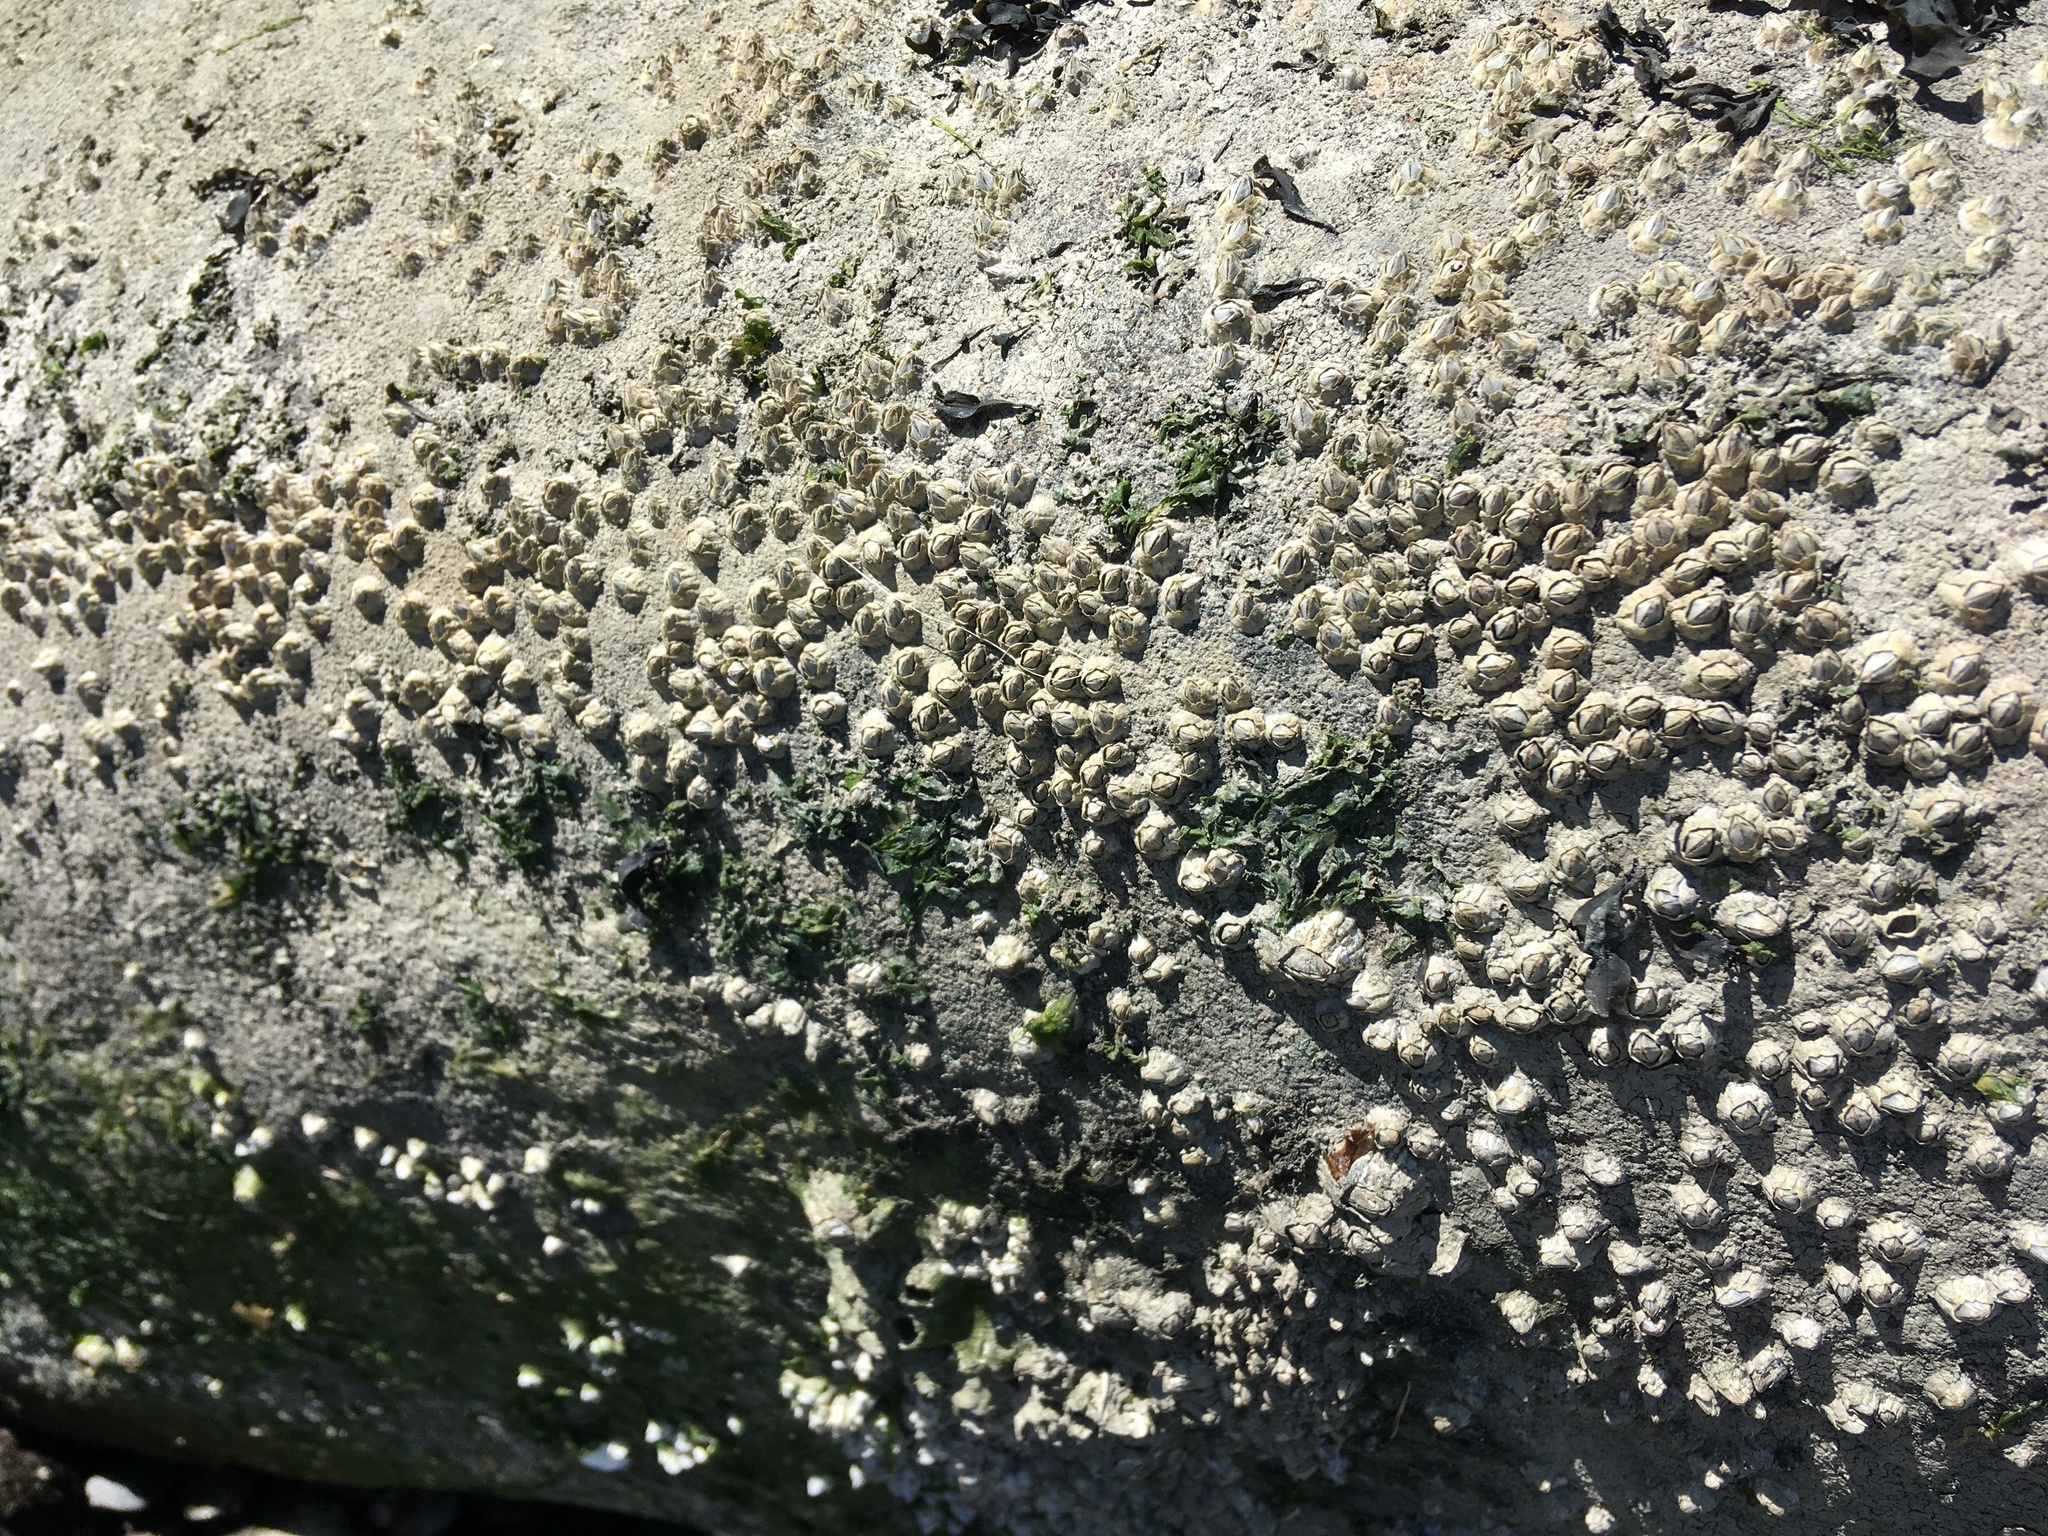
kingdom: Animalia
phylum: Arthropoda
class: Maxillopoda
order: Sessilia
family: Archaeobalanidae
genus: Semibalanus
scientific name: Semibalanus balanoides
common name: Acorn barnacle
